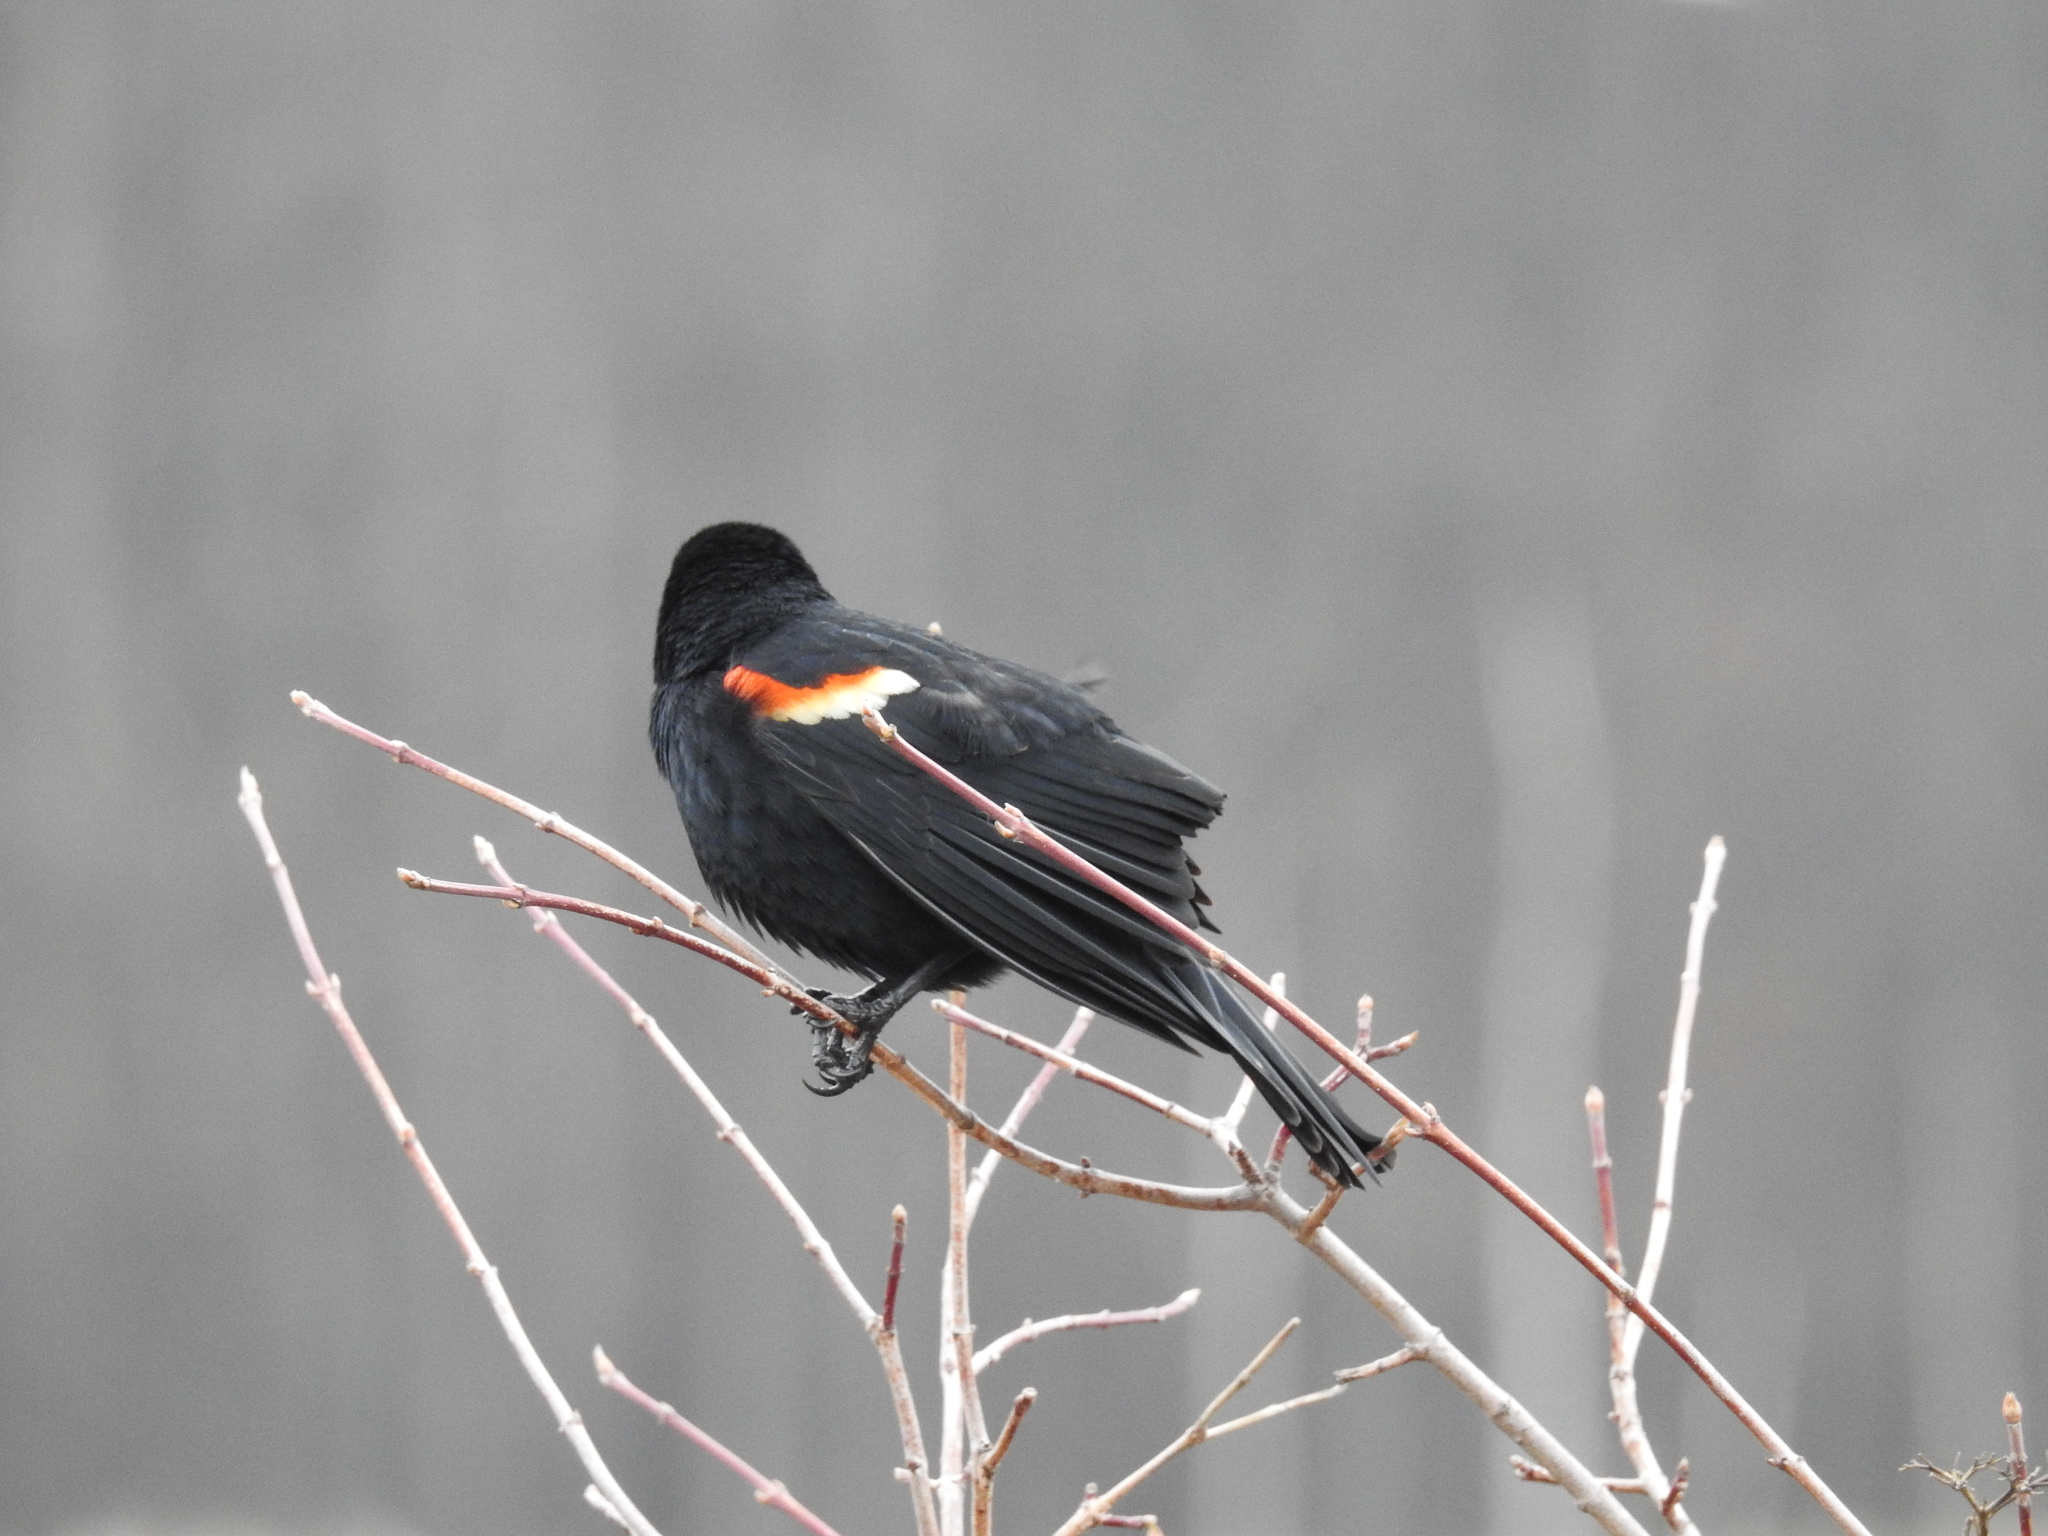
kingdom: Animalia
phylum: Chordata
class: Aves
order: Passeriformes
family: Icteridae
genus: Agelaius
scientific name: Agelaius phoeniceus
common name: Red-winged blackbird
